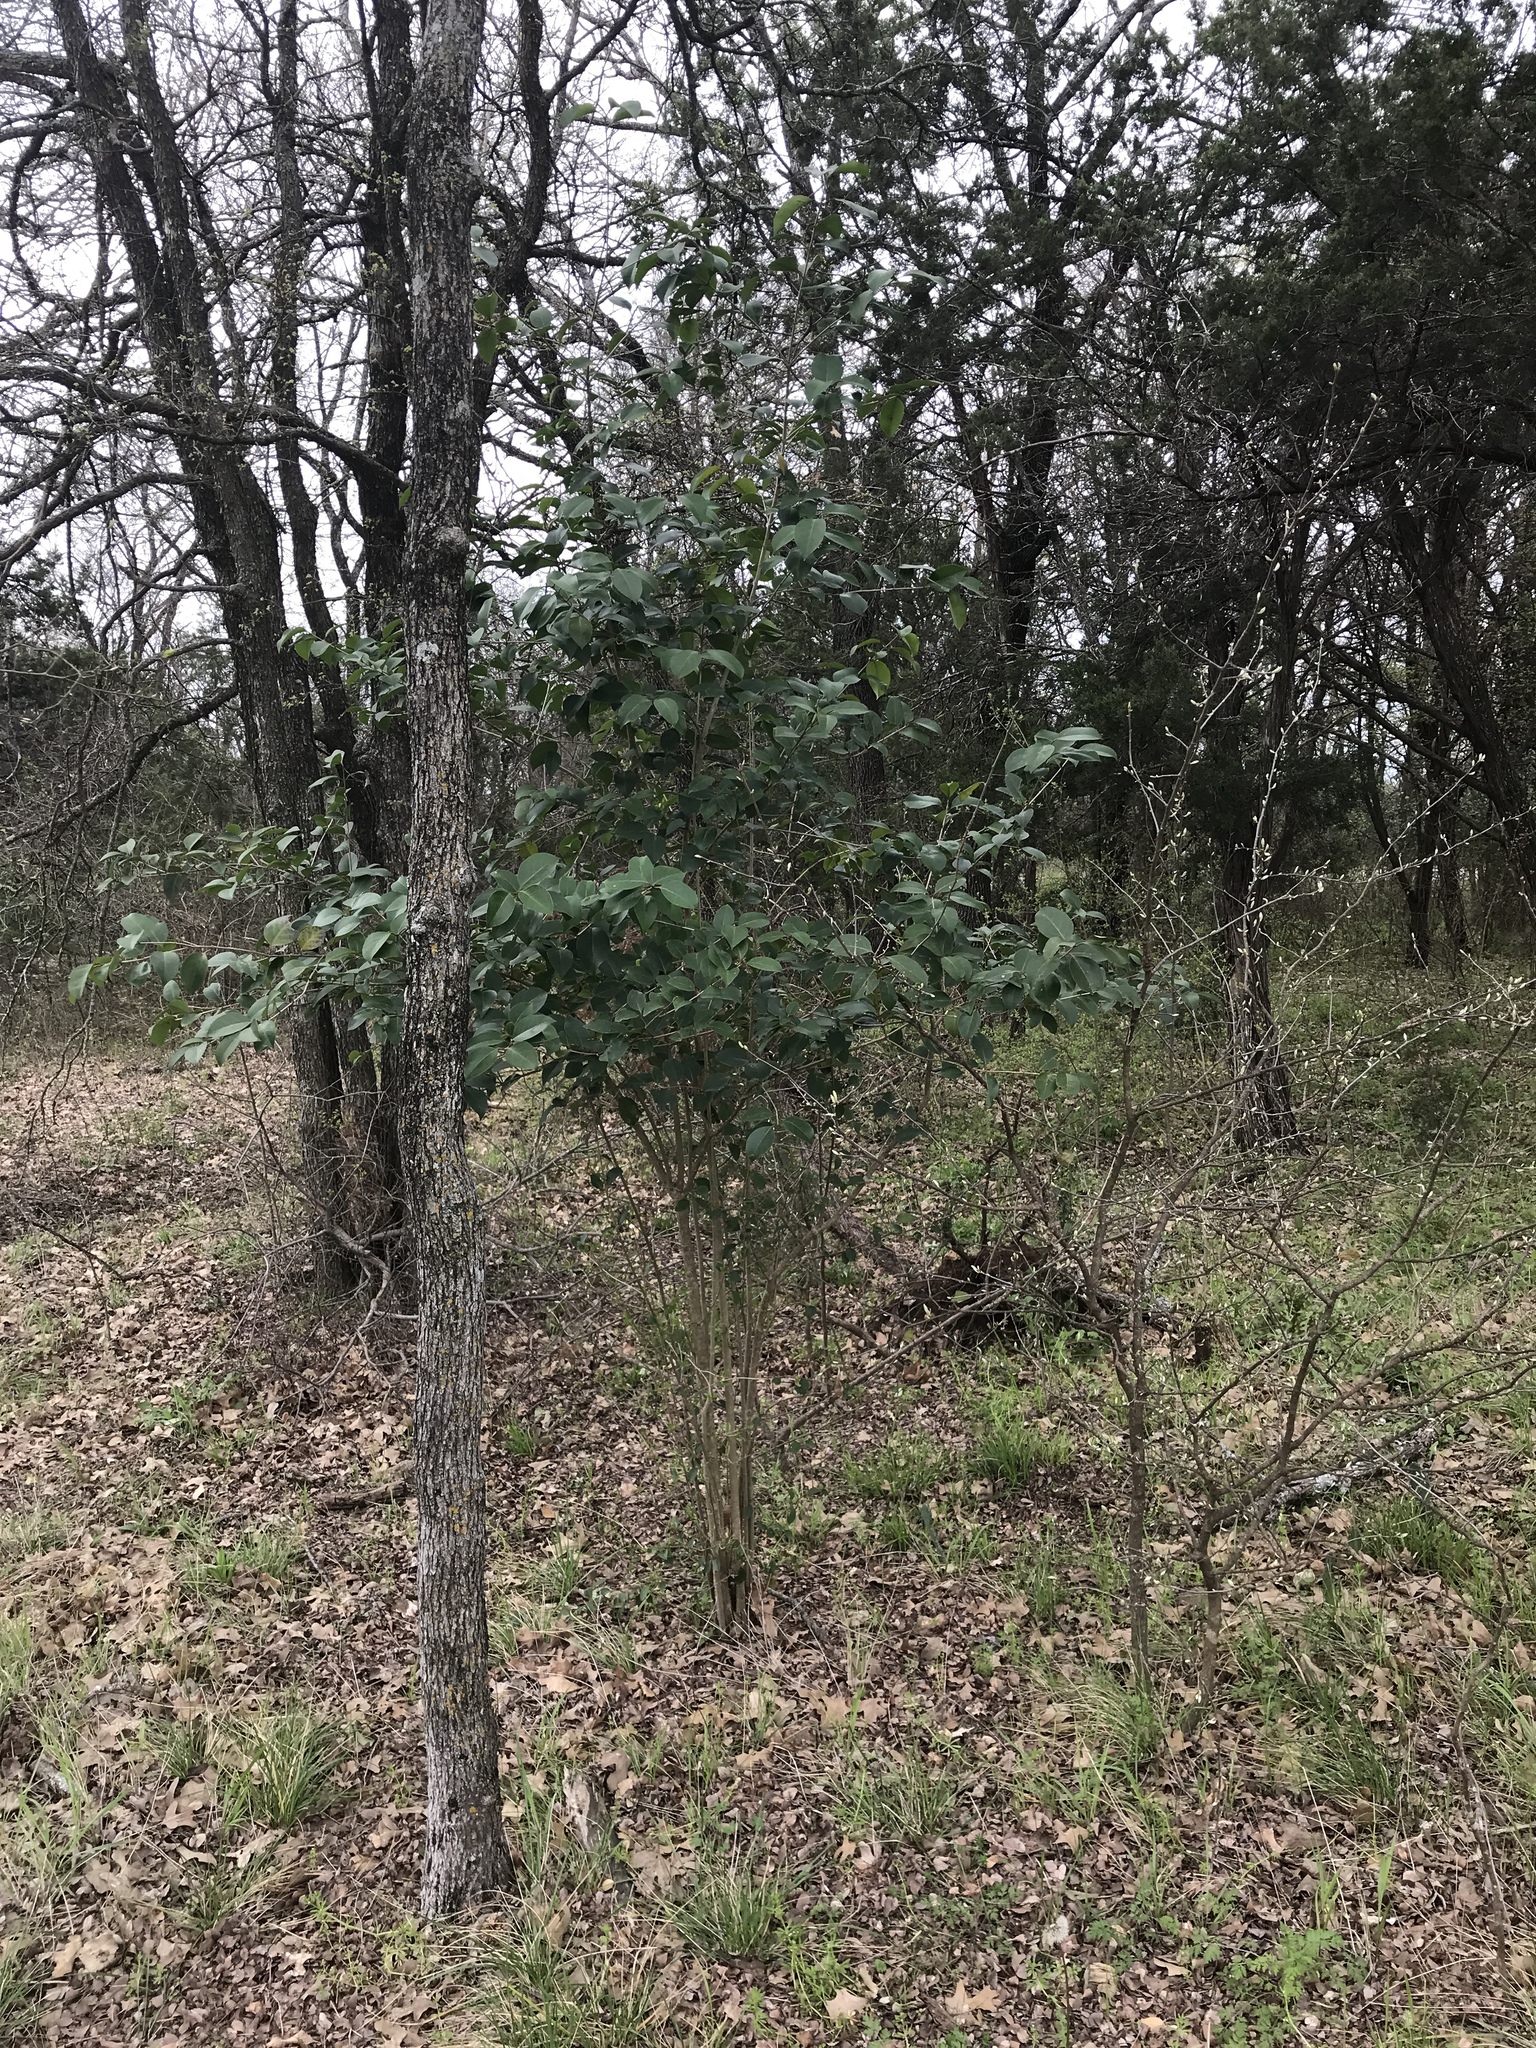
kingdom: Plantae
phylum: Tracheophyta
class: Magnoliopsida
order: Lamiales
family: Oleaceae
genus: Ligustrum
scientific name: Ligustrum lucidum
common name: Glossy privet
